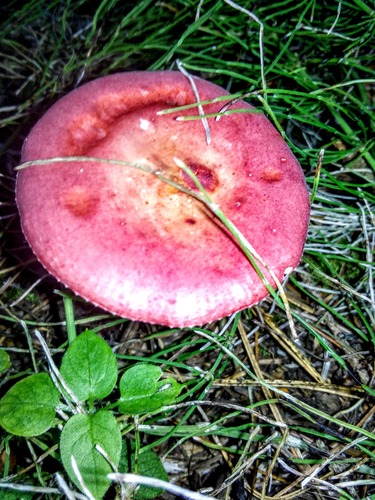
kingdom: Fungi
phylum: Basidiomycota
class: Agaricomycetes
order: Russulales
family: Russulaceae
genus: Russula
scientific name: Russula
